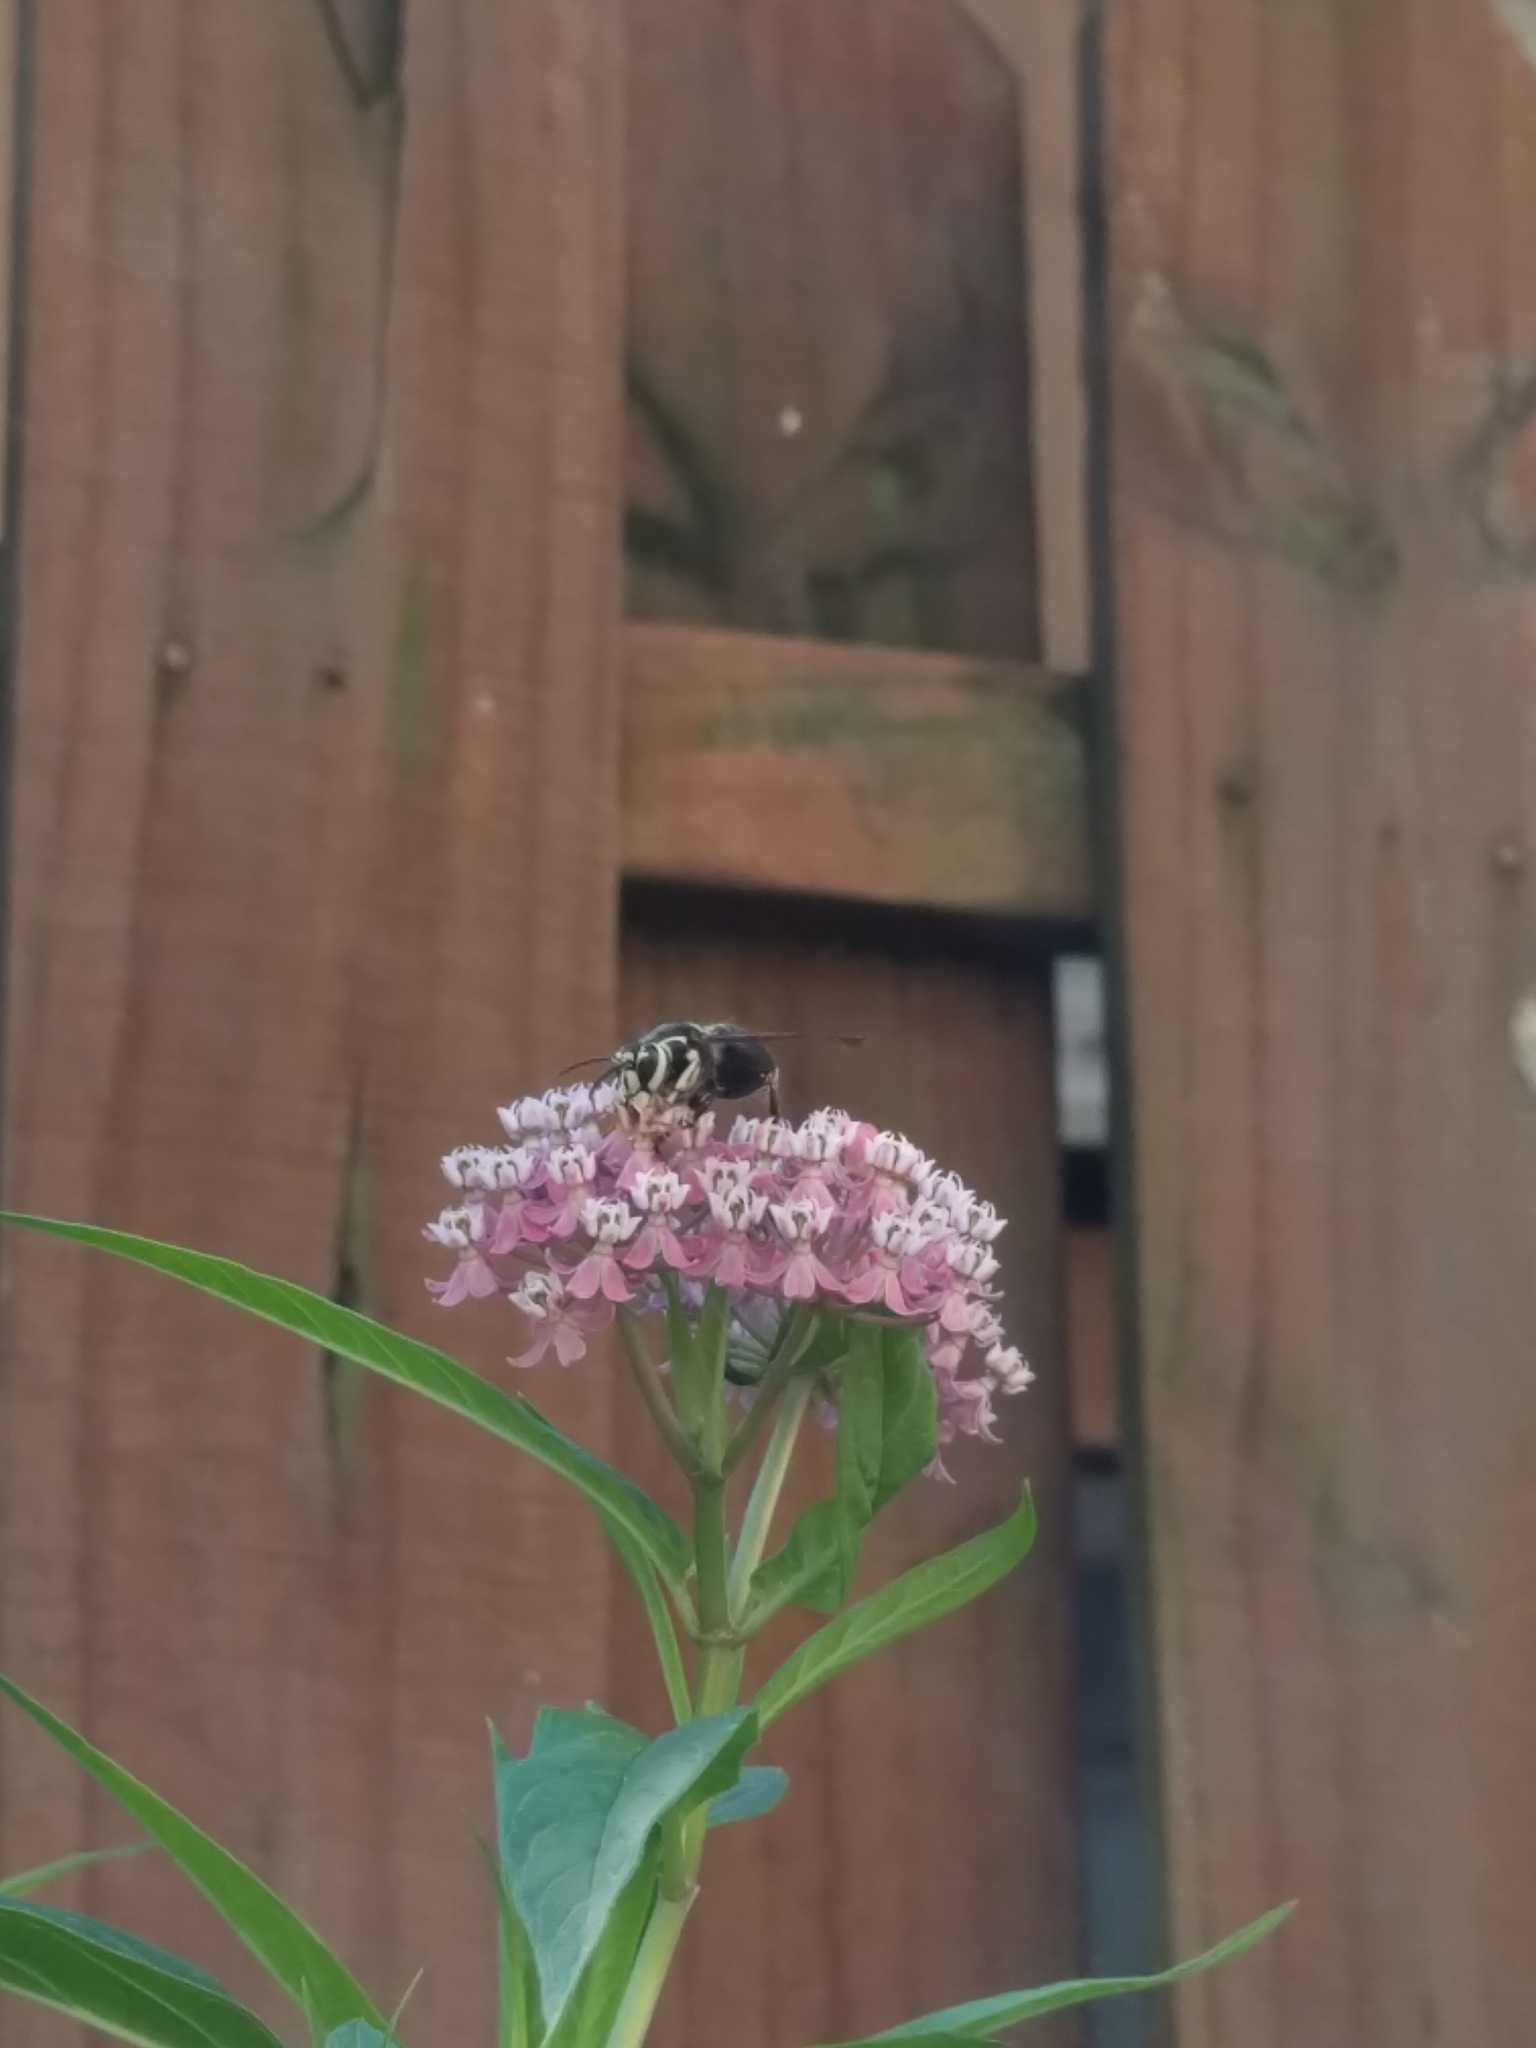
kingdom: Animalia
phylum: Arthropoda
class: Insecta
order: Hymenoptera
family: Vespidae
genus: Dolichovespula
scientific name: Dolichovespula maculata
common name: Bald-faced hornet
